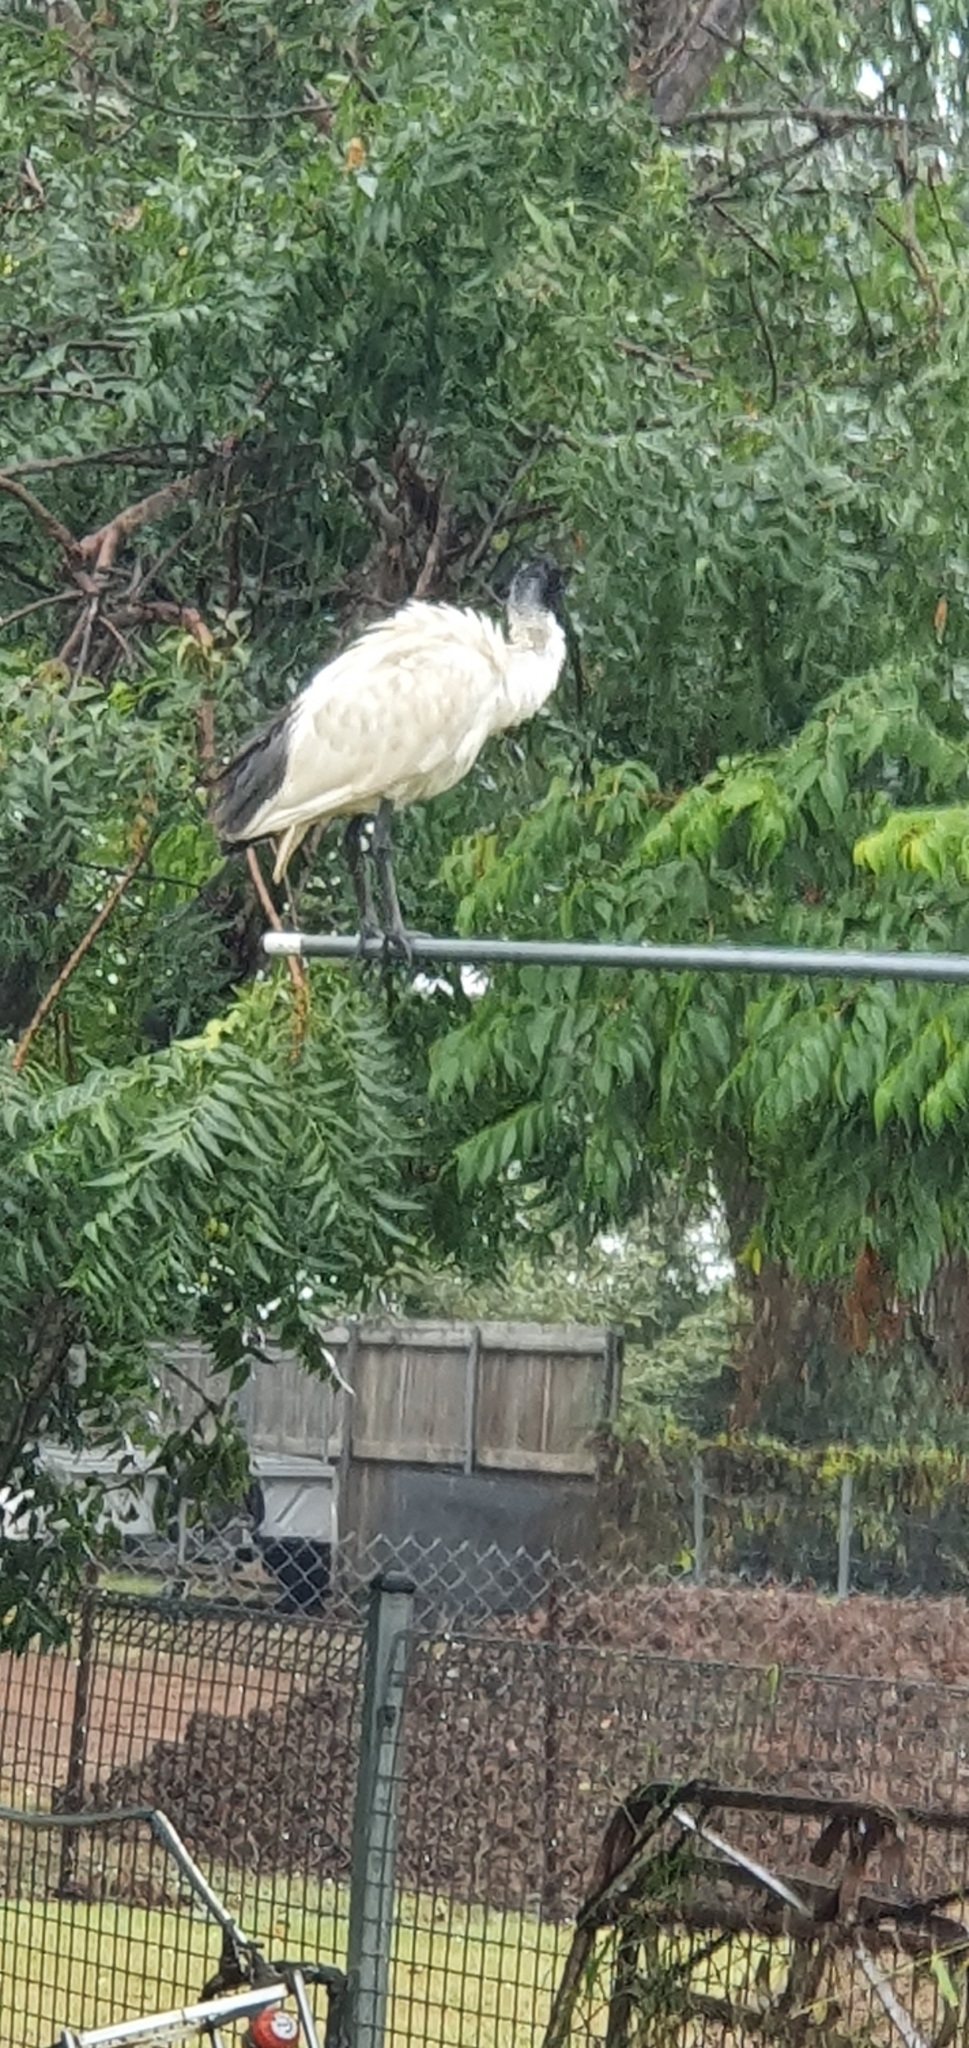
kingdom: Animalia
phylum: Chordata
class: Aves
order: Pelecaniformes
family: Threskiornithidae
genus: Threskiornis
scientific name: Threskiornis molucca
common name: Australian white ibis
